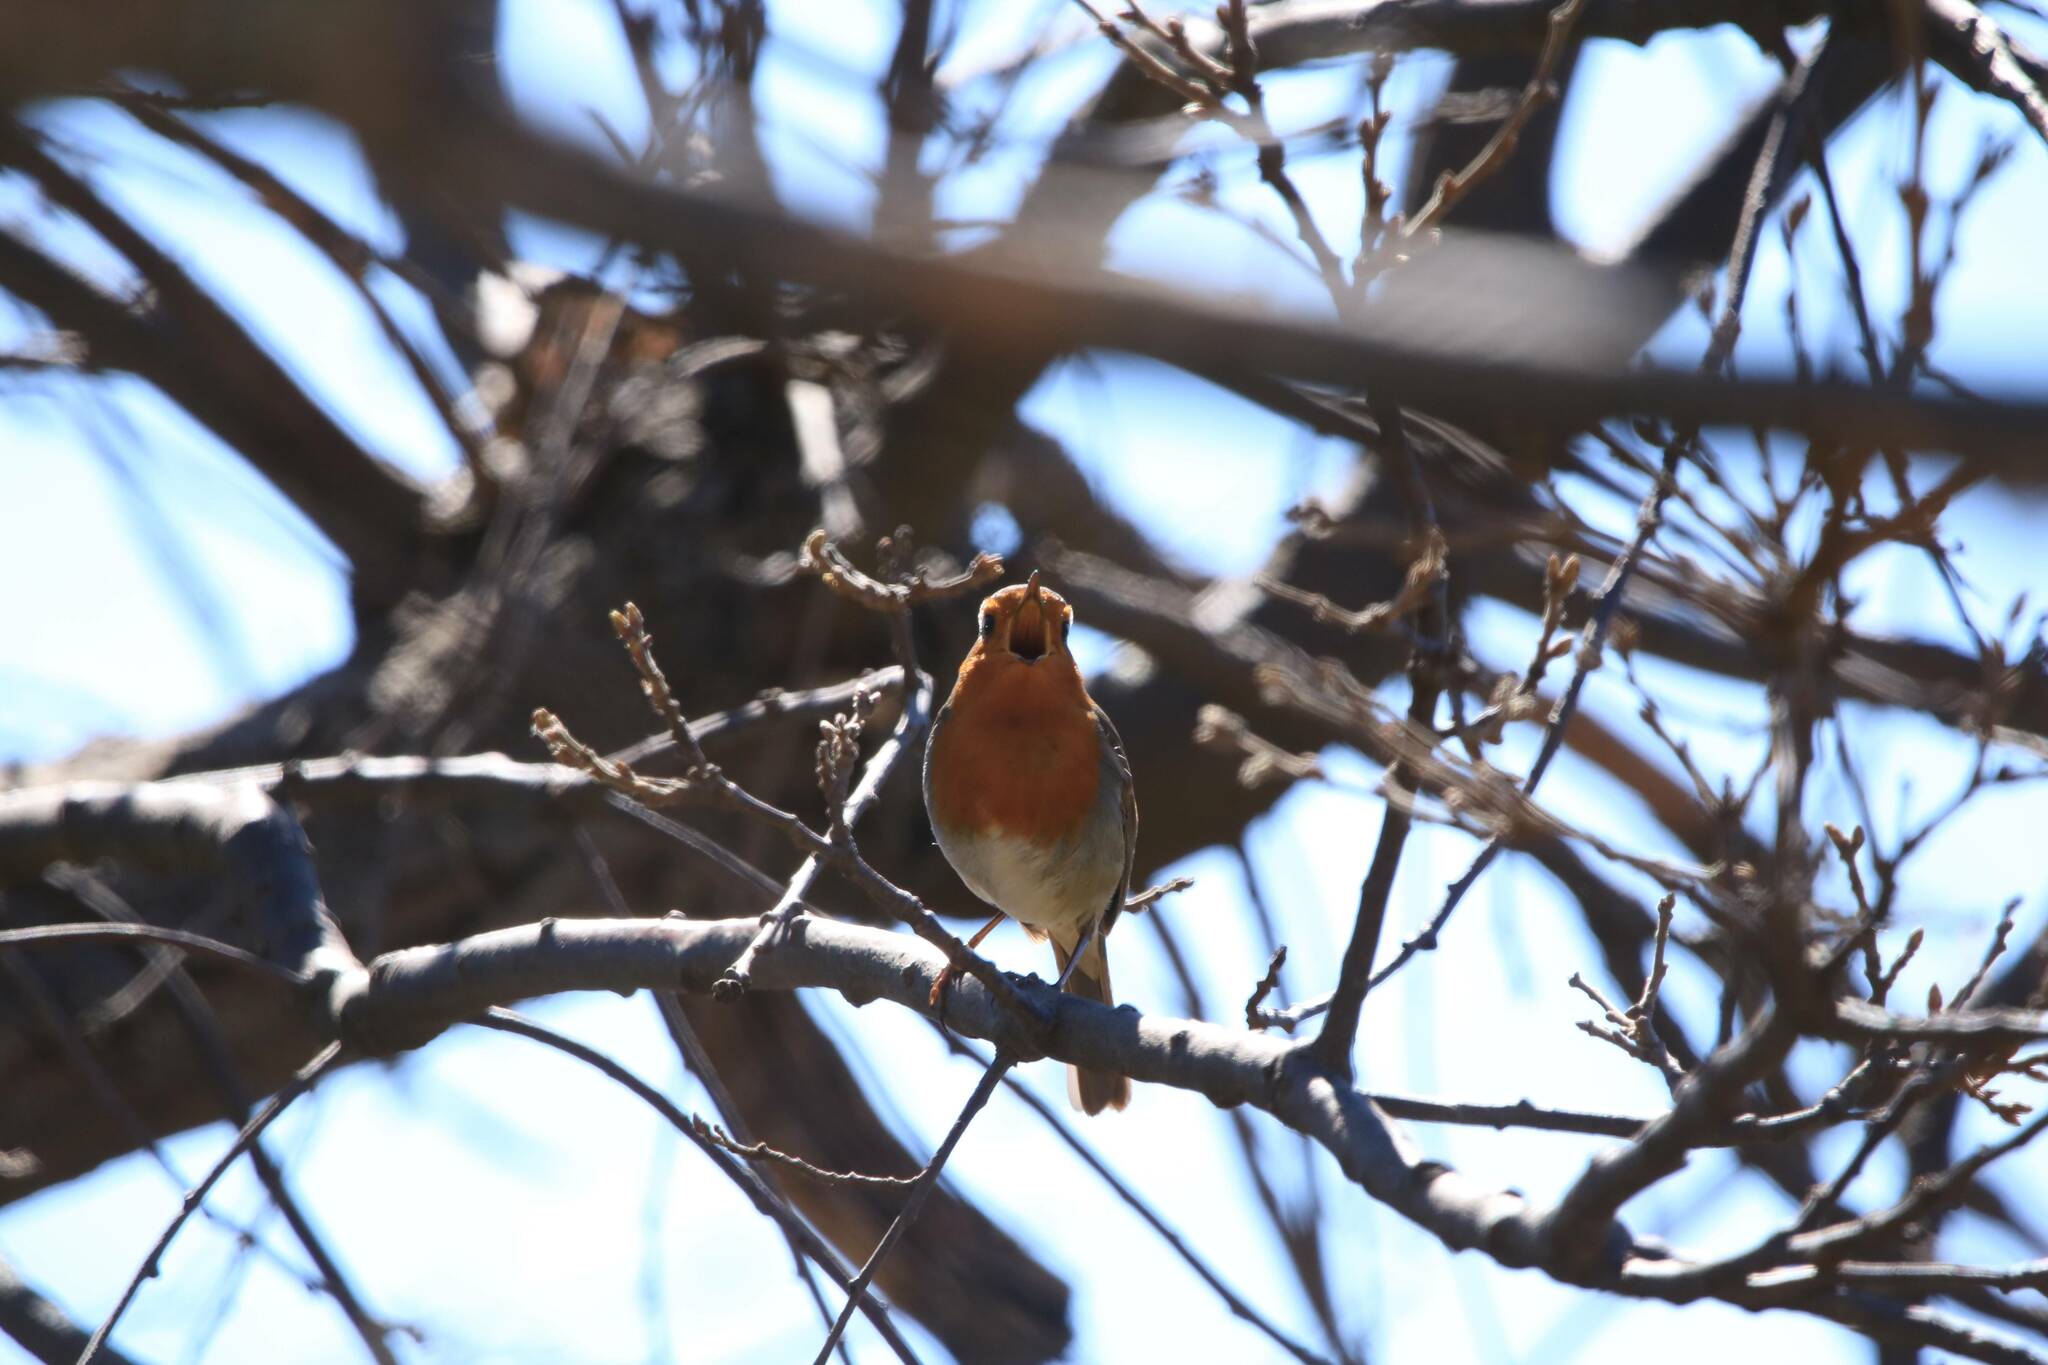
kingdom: Animalia
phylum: Chordata
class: Aves
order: Passeriformes
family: Muscicapidae
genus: Erithacus
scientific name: Erithacus rubecula
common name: European robin
